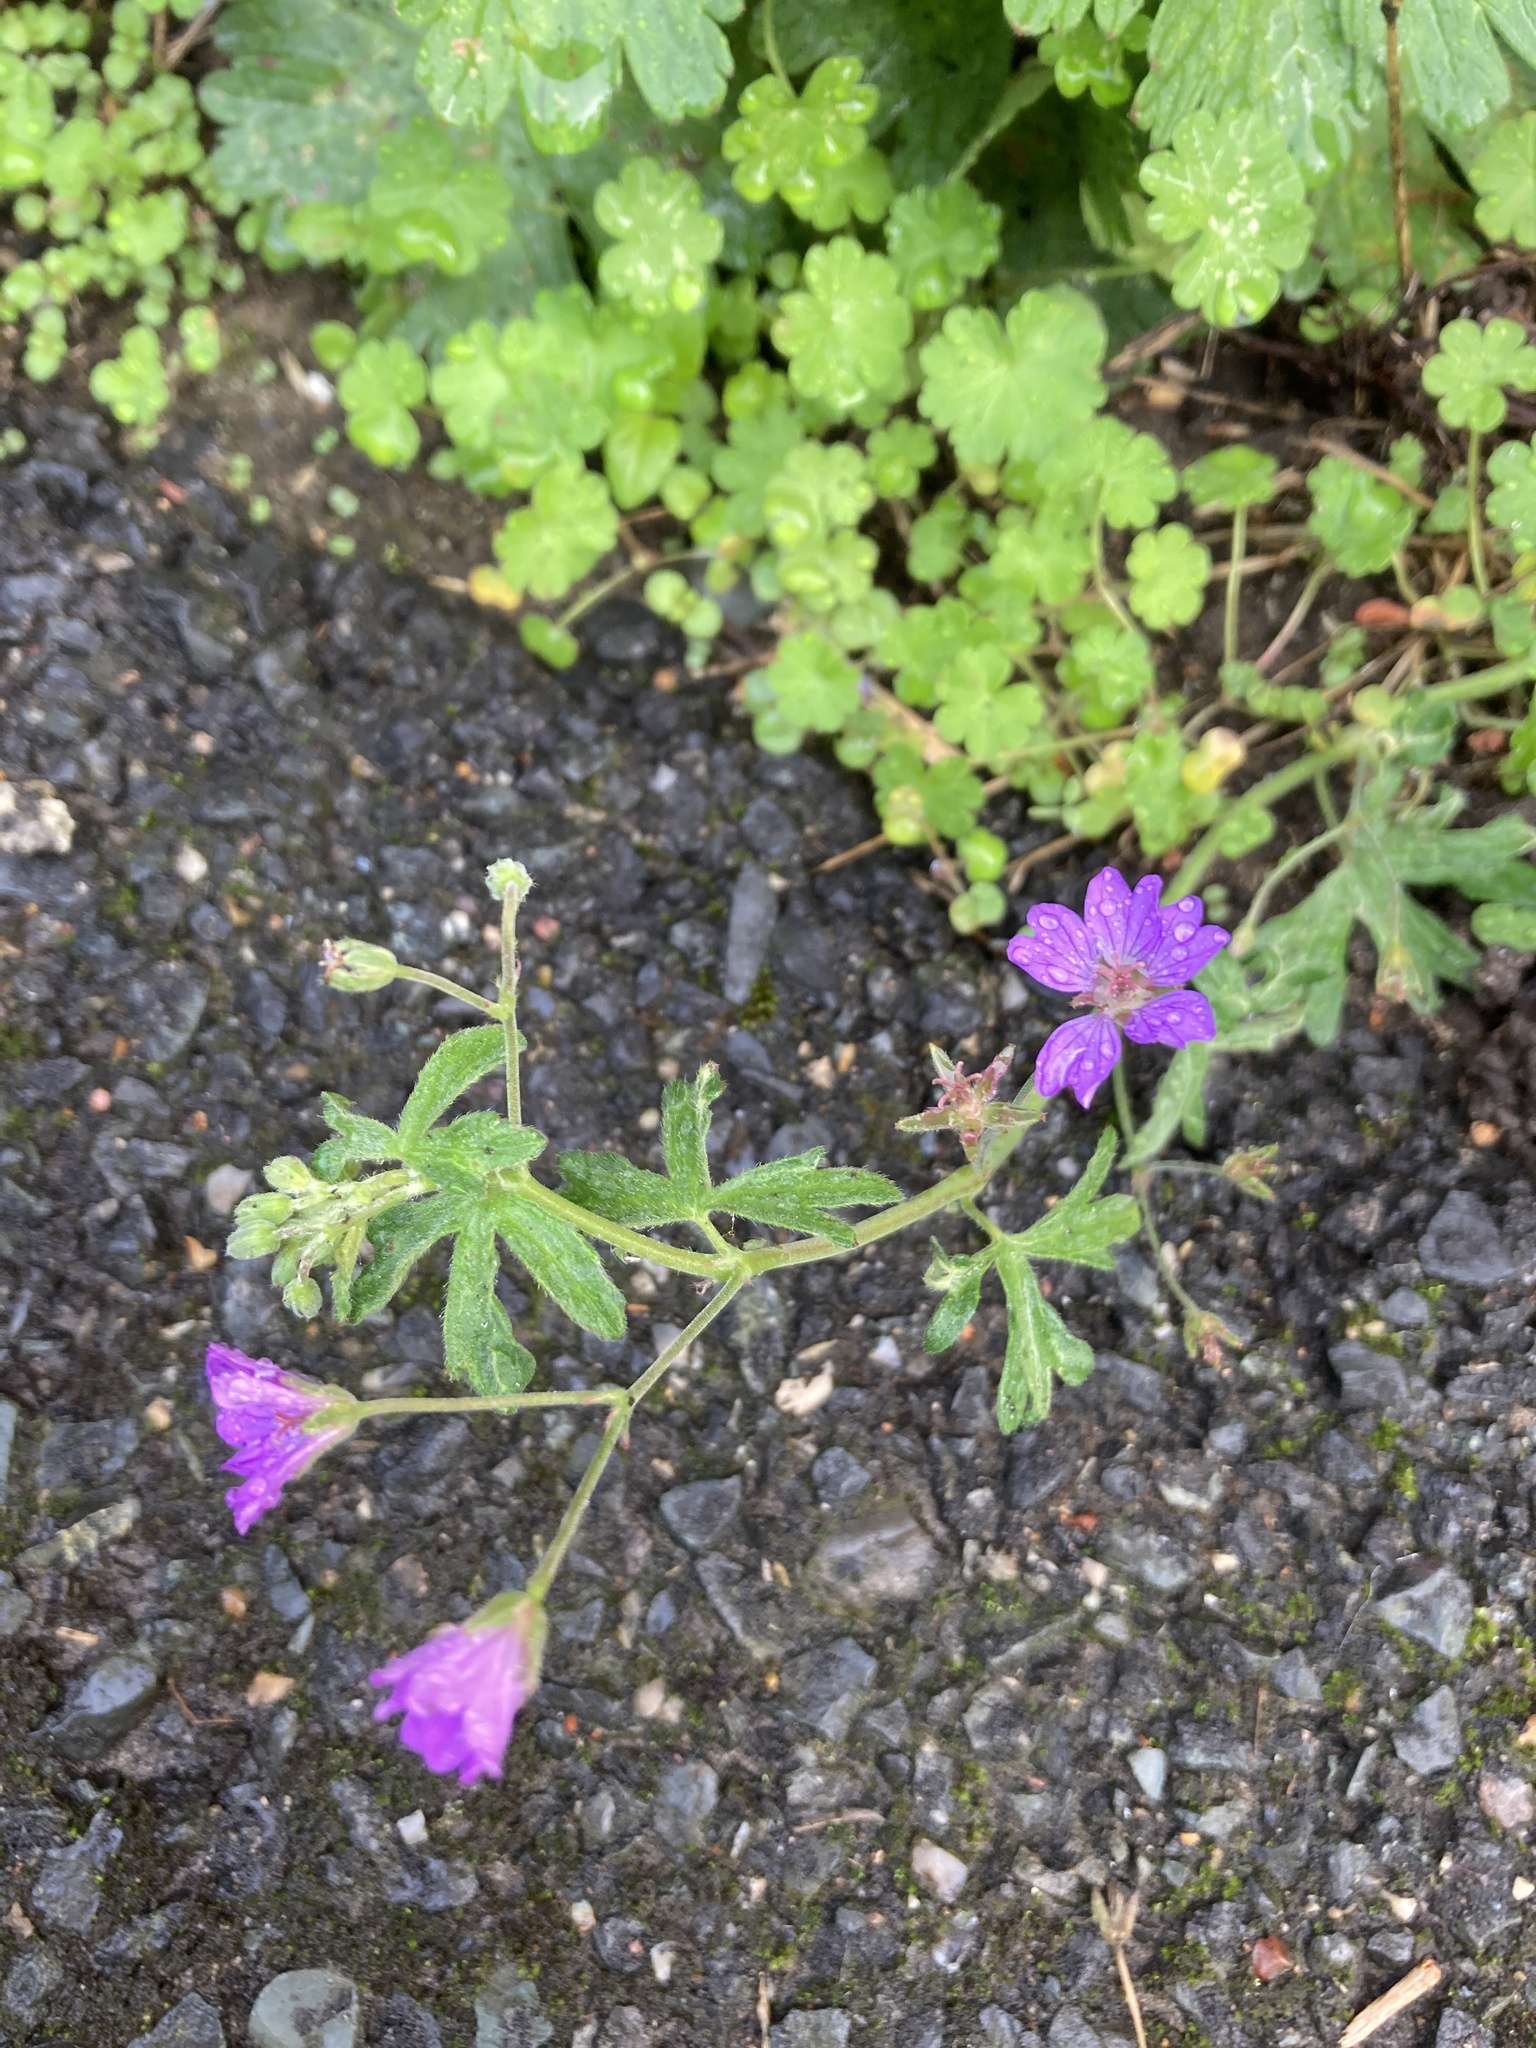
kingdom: Plantae
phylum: Tracheophyta
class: Magnoliopsida
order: Geraniales
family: Geraniaceae
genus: Geranium
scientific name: Geranium pyrenaicum
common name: Hedgerow crane's-bill
